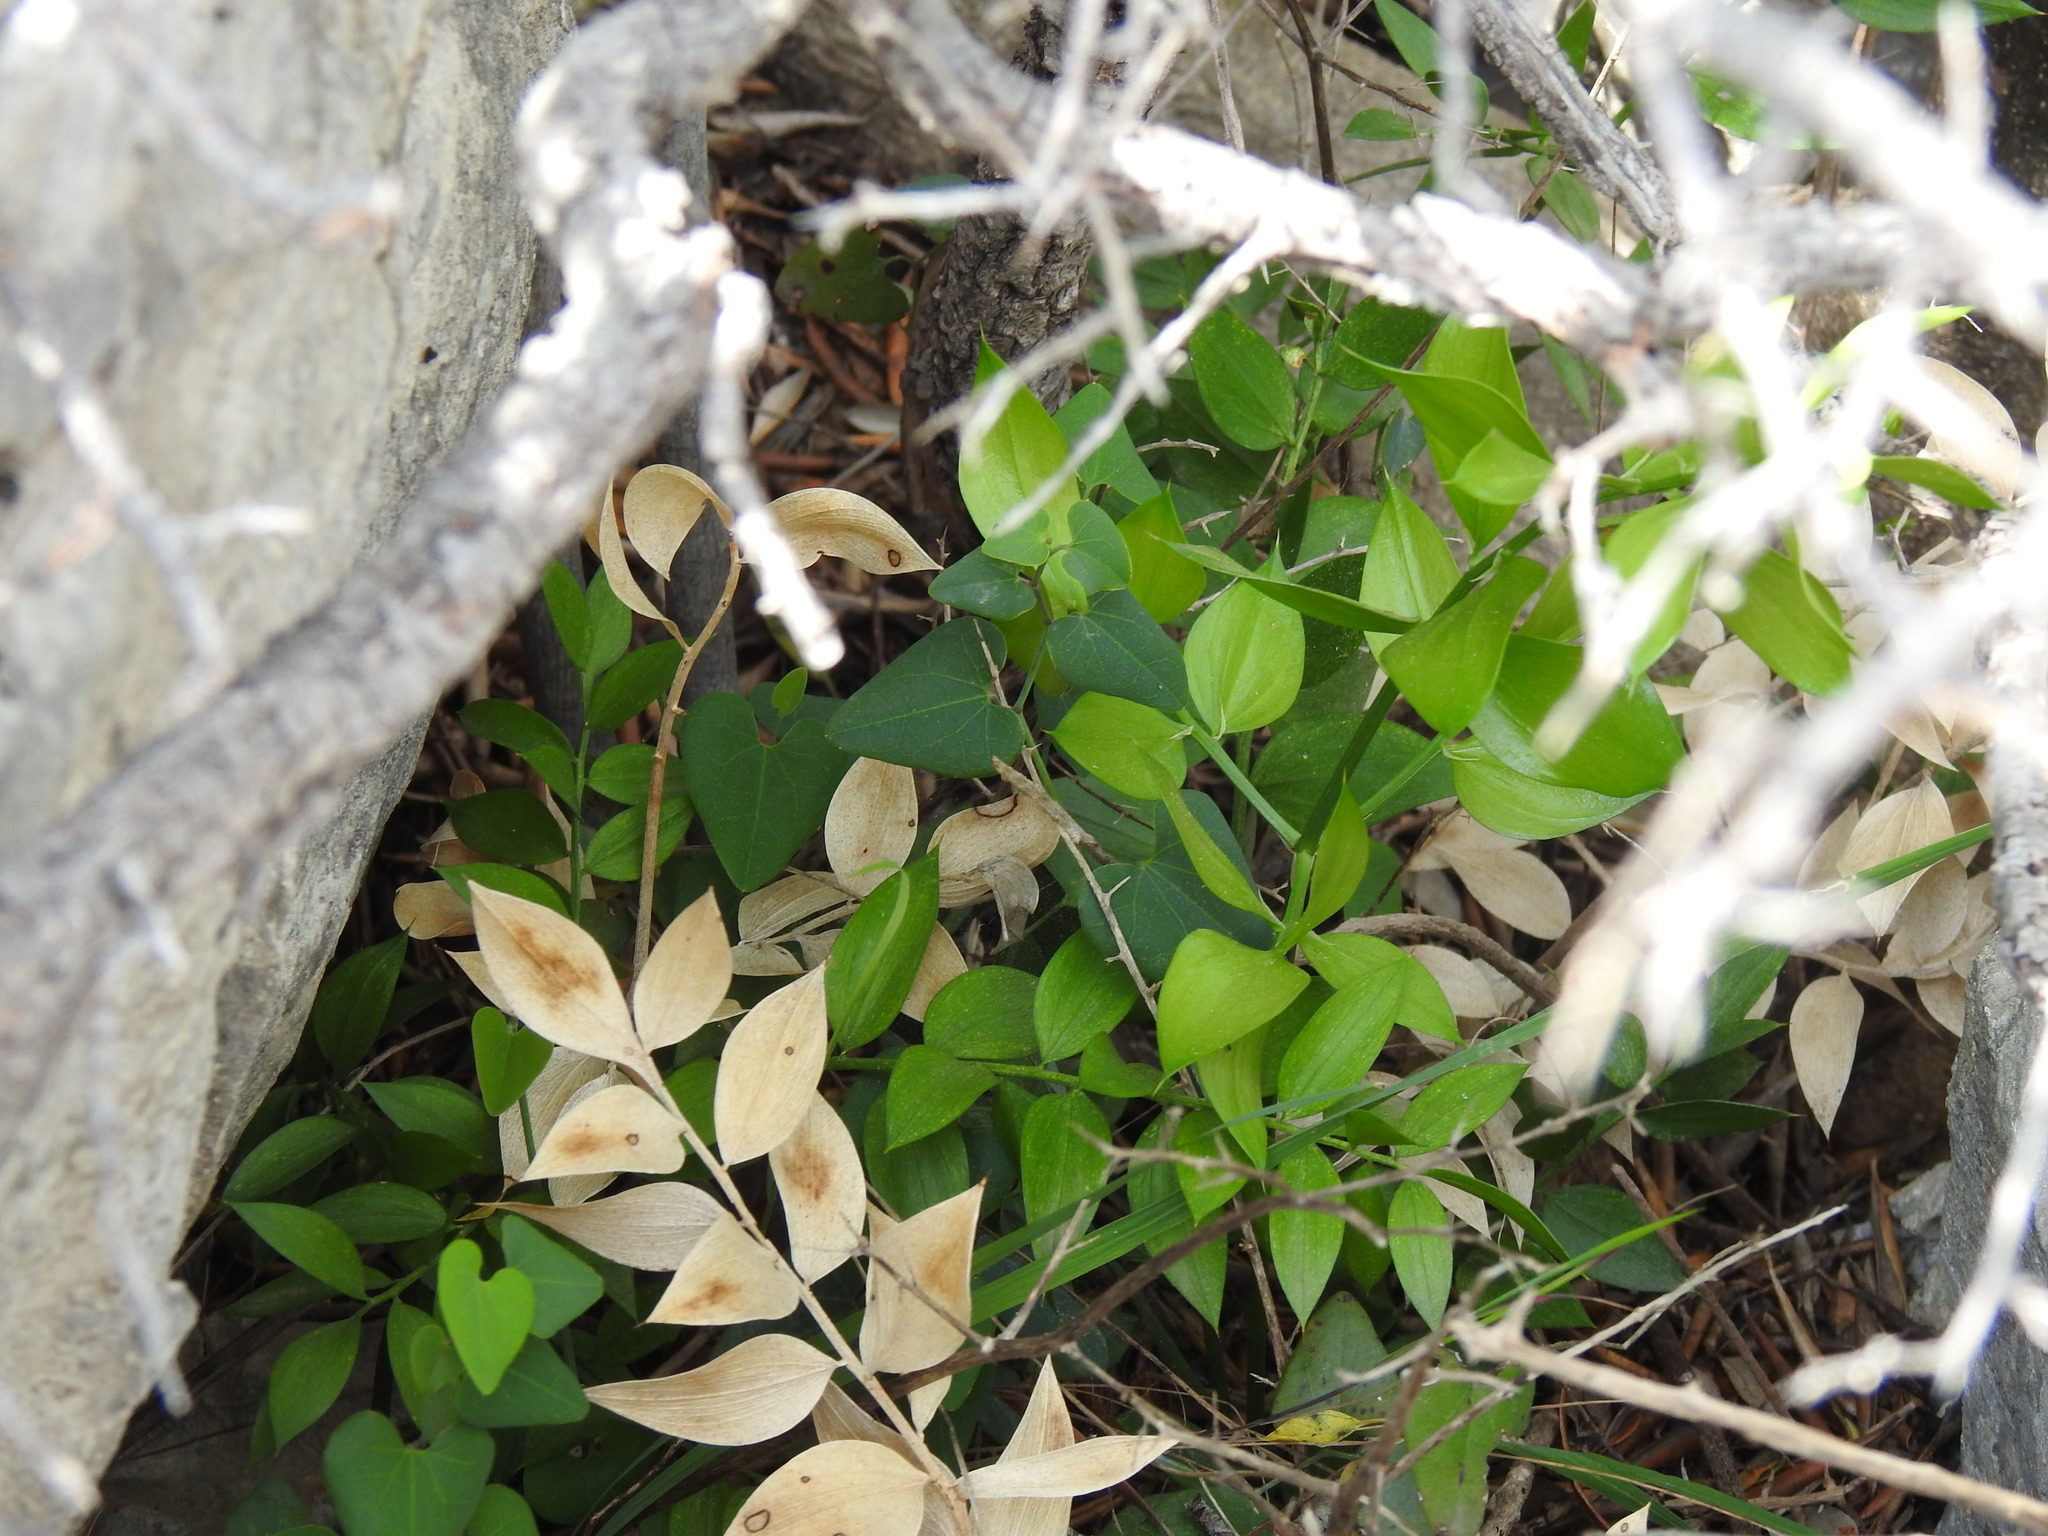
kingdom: Plantae
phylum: Tracheophyta
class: Liliopsida
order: Asparagales
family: Asparagaceae
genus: Ruscus
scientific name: Ruscus aculeatus
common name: Butcher's-broom
